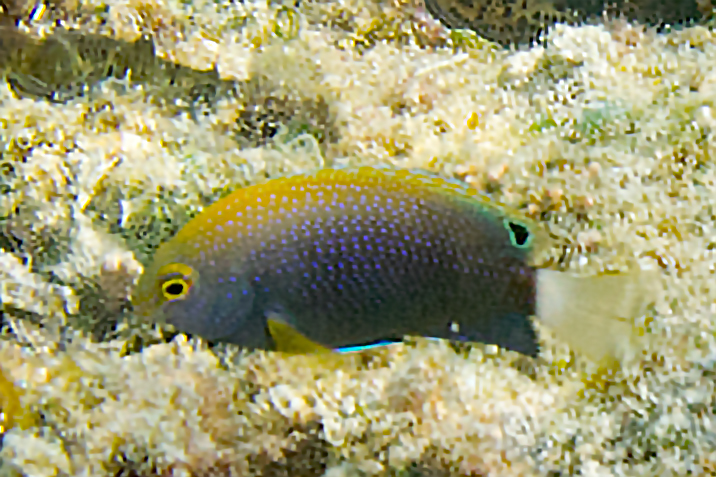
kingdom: Animalia
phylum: Chordata
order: Perciformes
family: Pomacentridae
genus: Pomacentrus
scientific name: Pomacentrus chrysurus
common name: White-tail damsel
